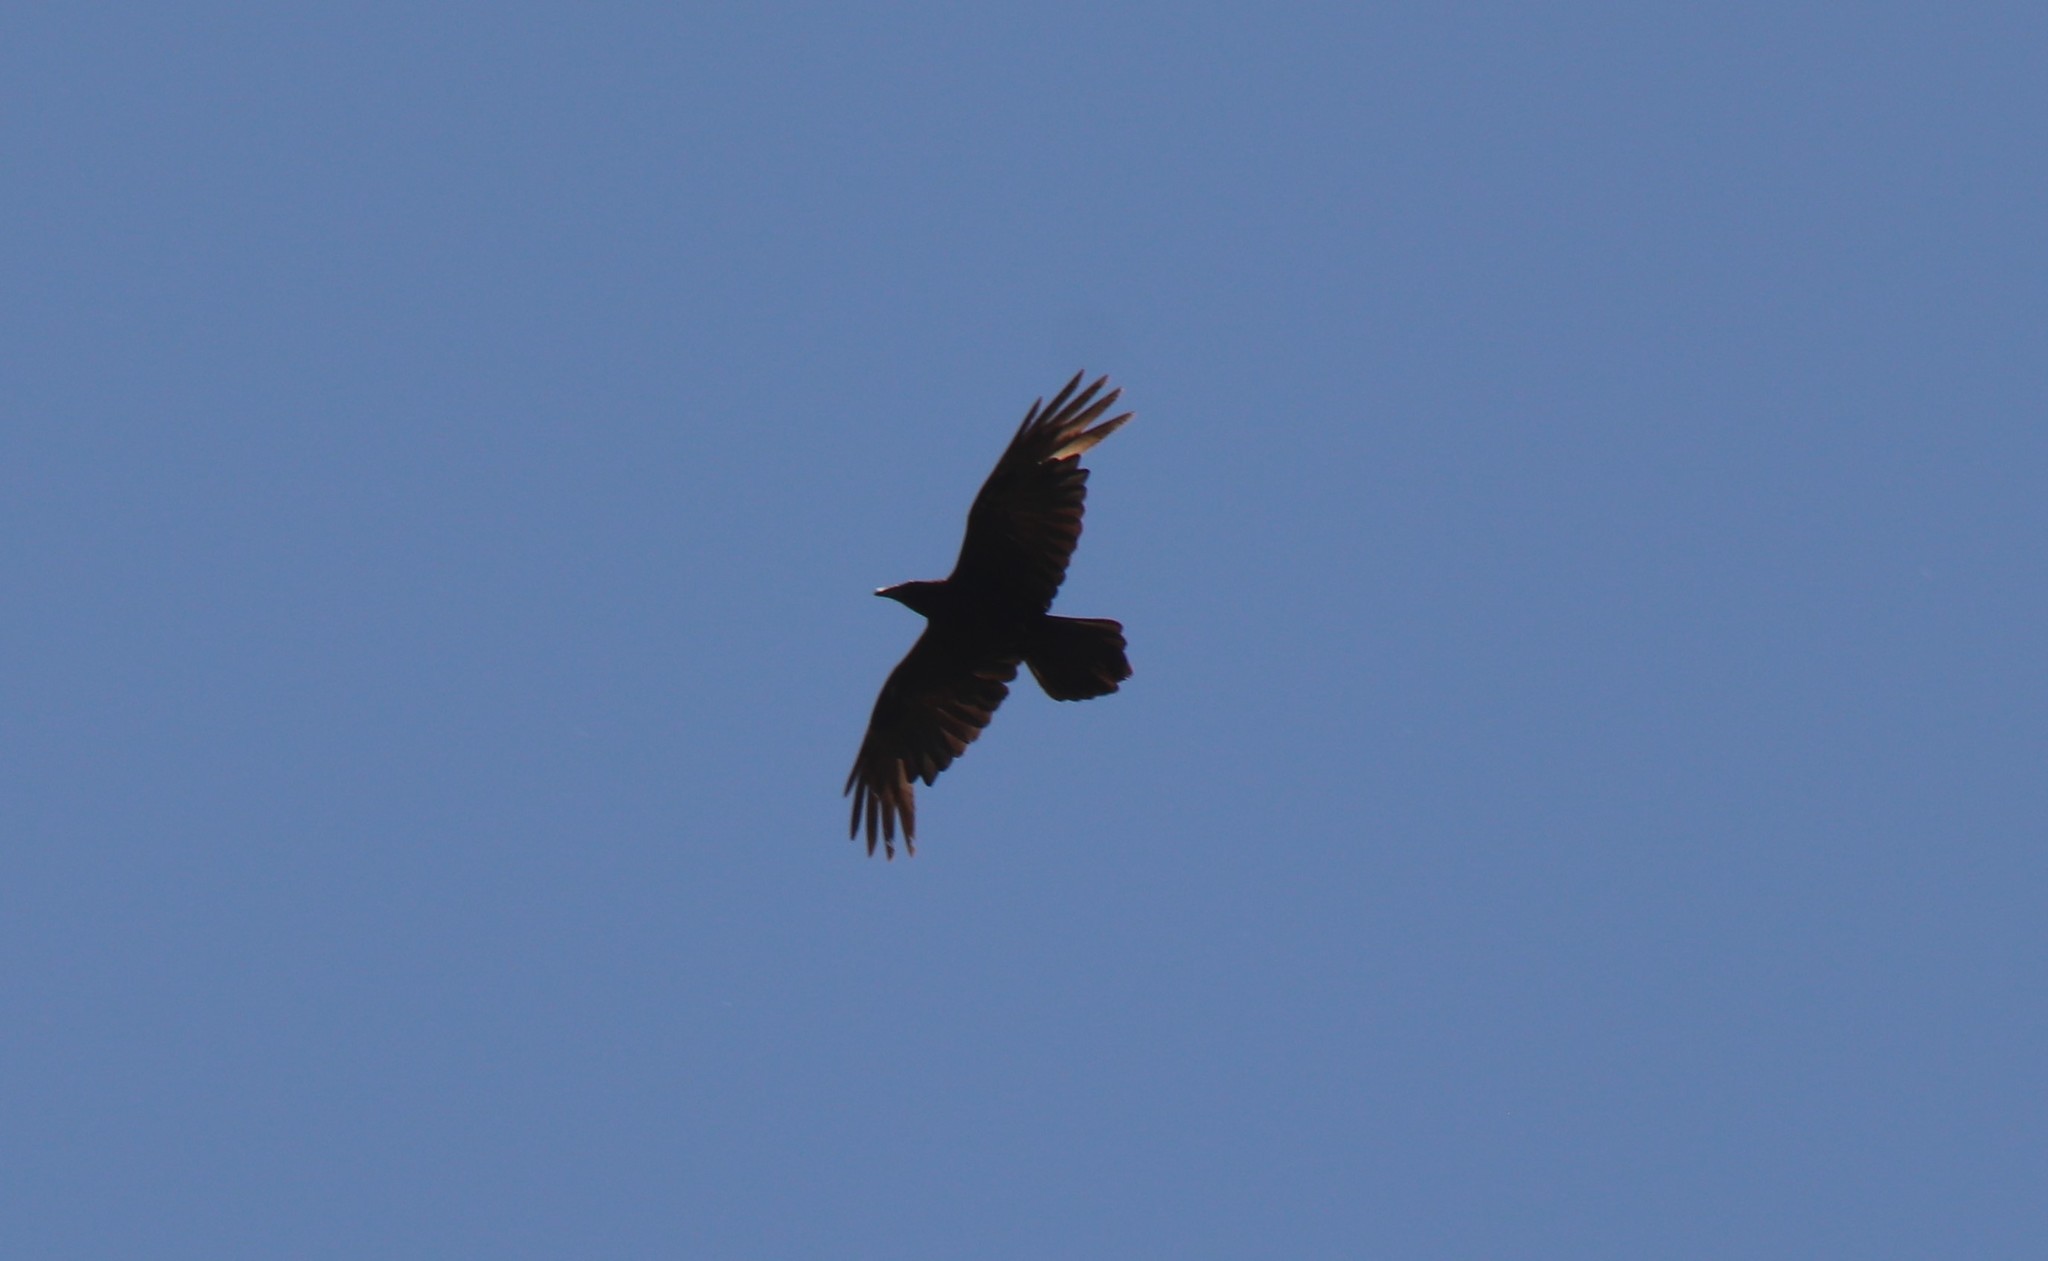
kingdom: Animalia
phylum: Chordata
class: Aves
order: Passeriformes
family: Corvidae
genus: Corvus
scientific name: Corvus corax
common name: Common raven
